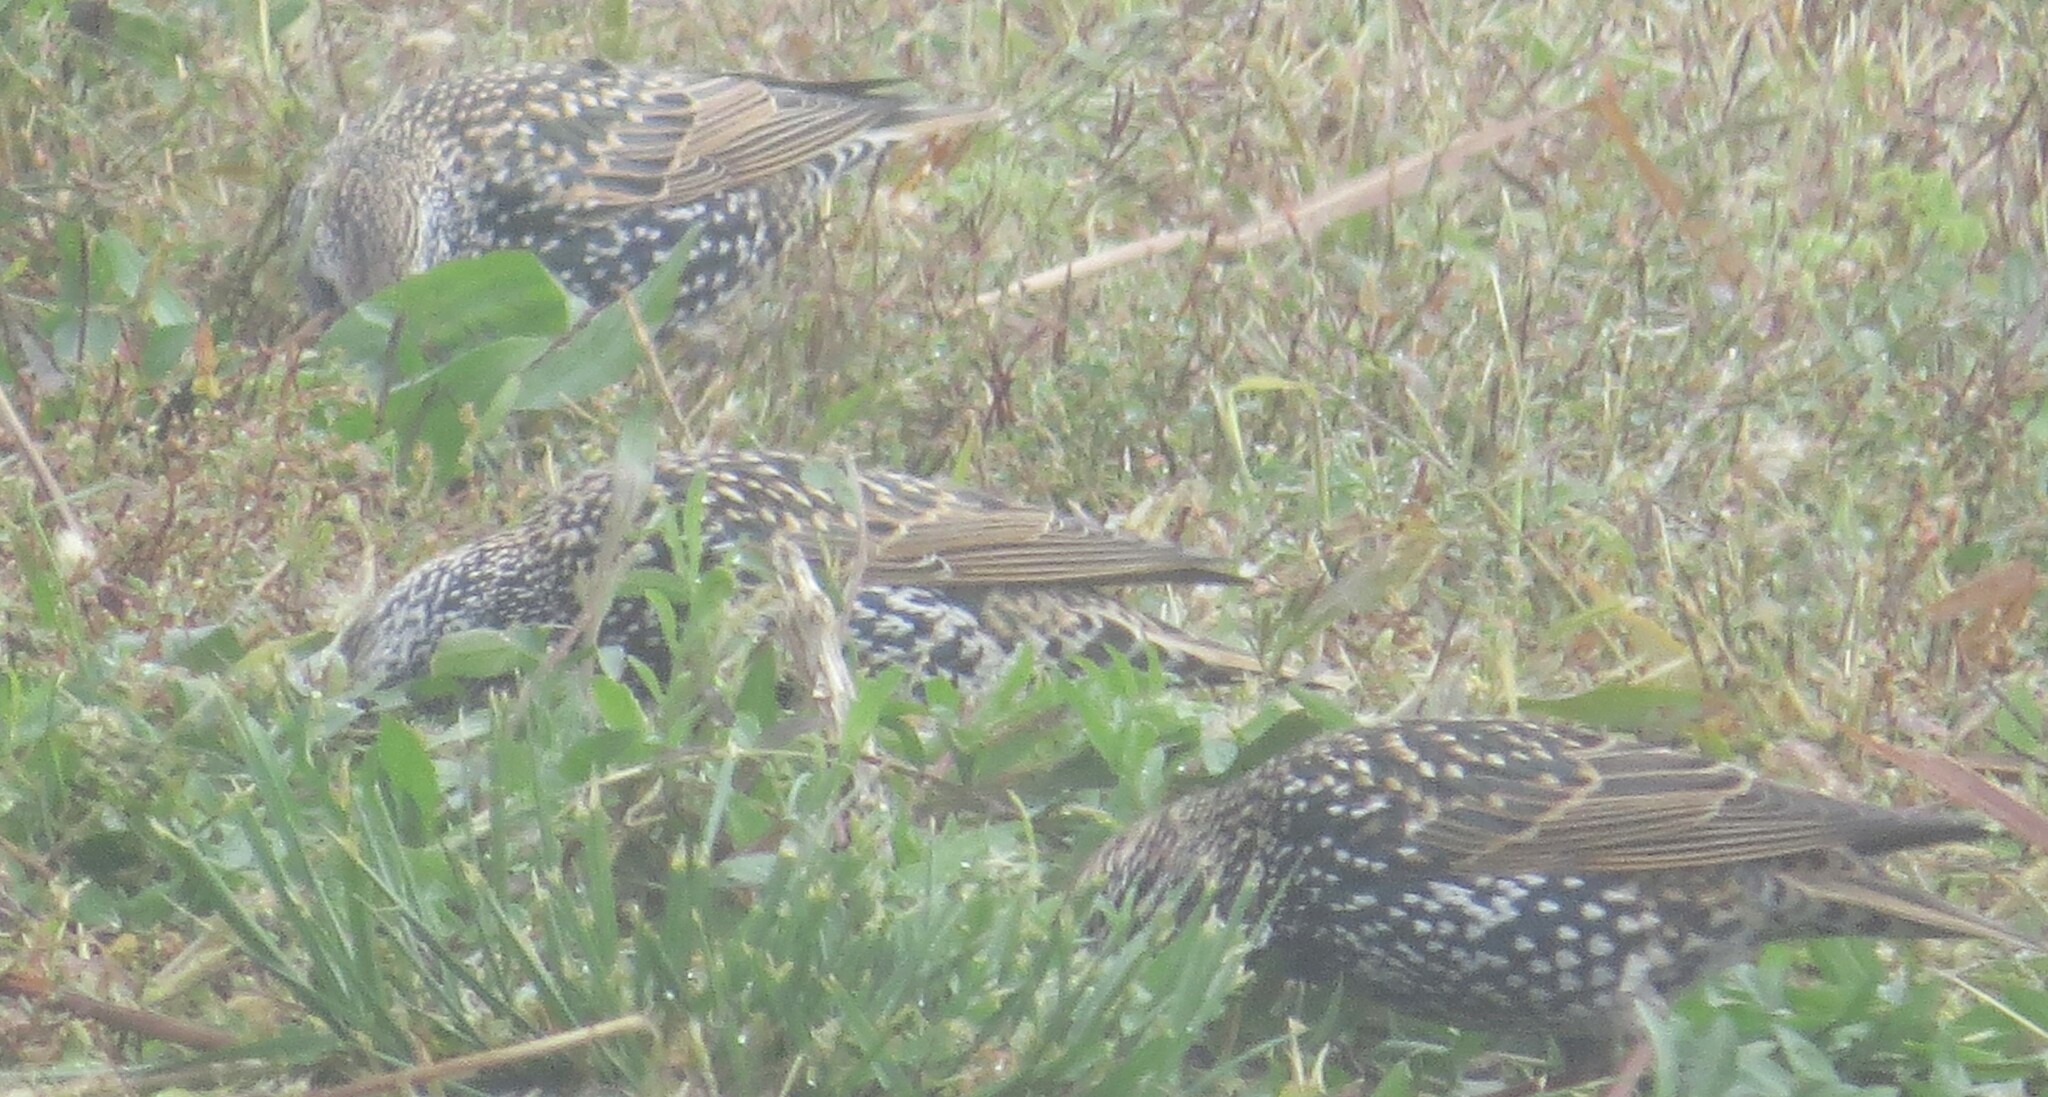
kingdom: Animalia
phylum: Chordata
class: Aves
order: Passeriformes
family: Sturnidae
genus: Sturnus
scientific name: Sturnus vulgaris
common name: Common starling
